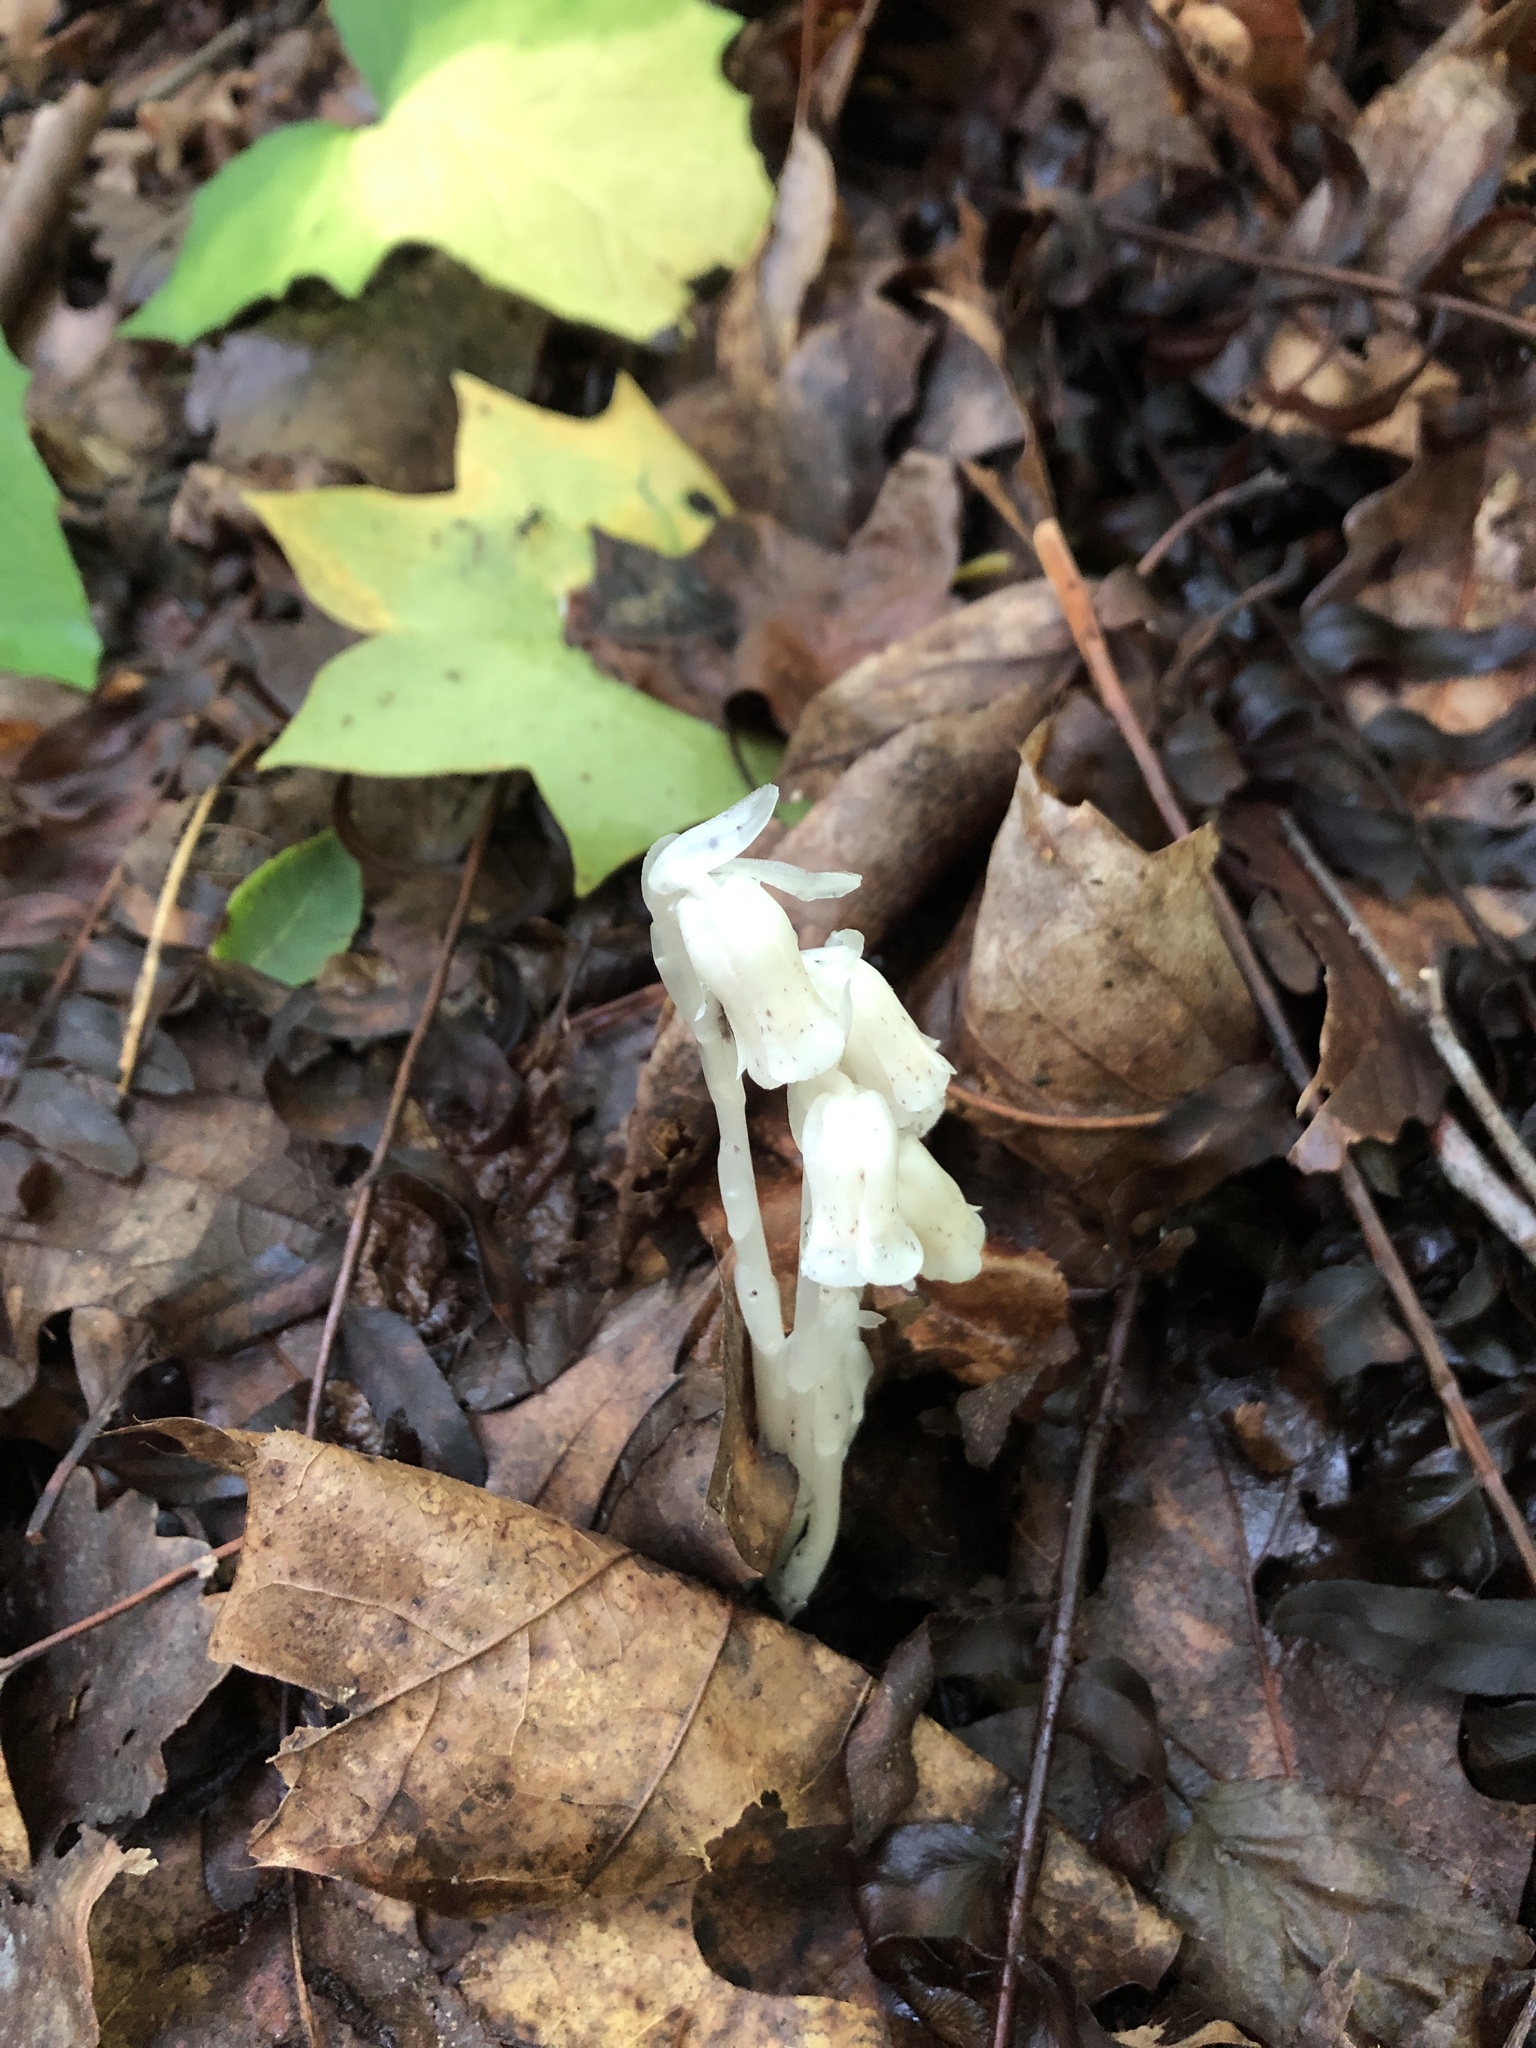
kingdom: Plantae
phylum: Tracheophyta
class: Magnoliopsida
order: Ericales
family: Ericaceae
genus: Monotropa
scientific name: Monotropa uniflora
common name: Convulsion root
